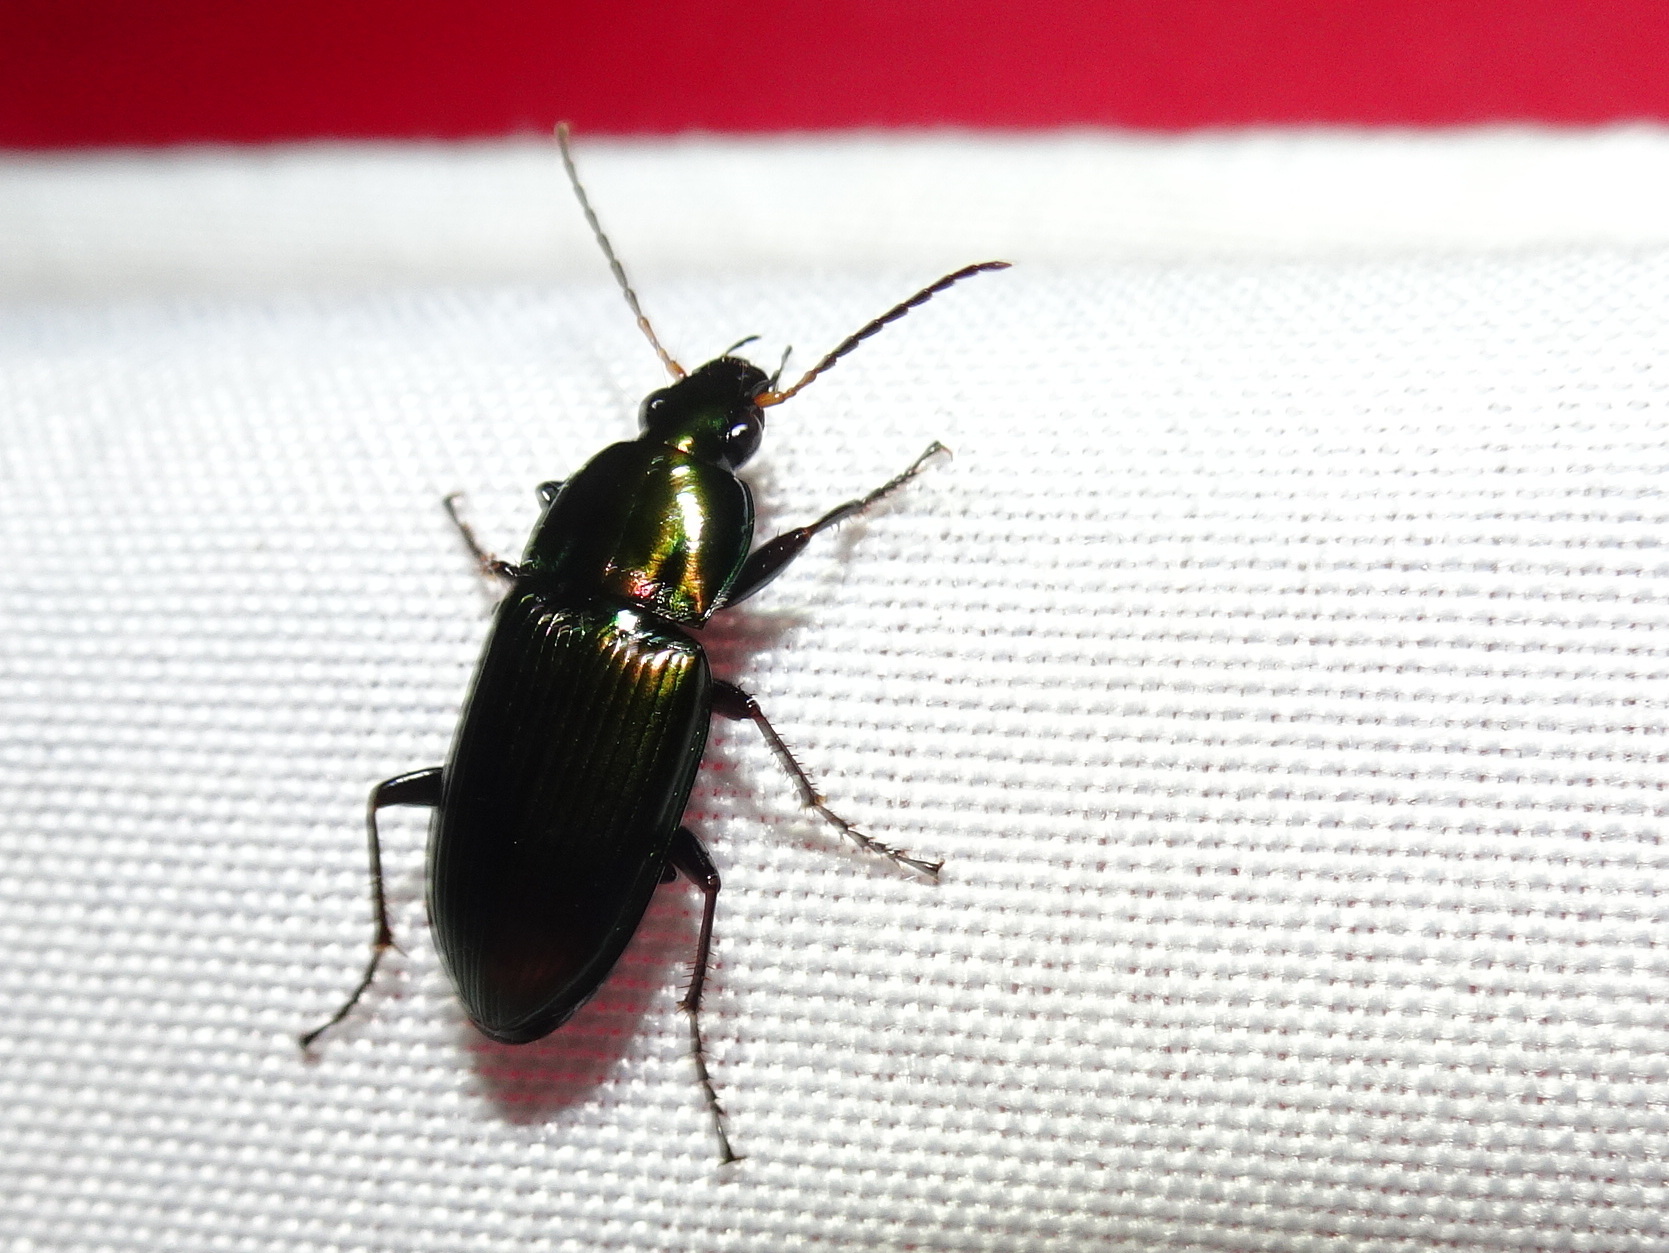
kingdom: Animalia
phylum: Arthropoda
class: Insecta
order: Coleoptera
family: Carabidae
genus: Poecilus
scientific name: Poecilus chalcites
